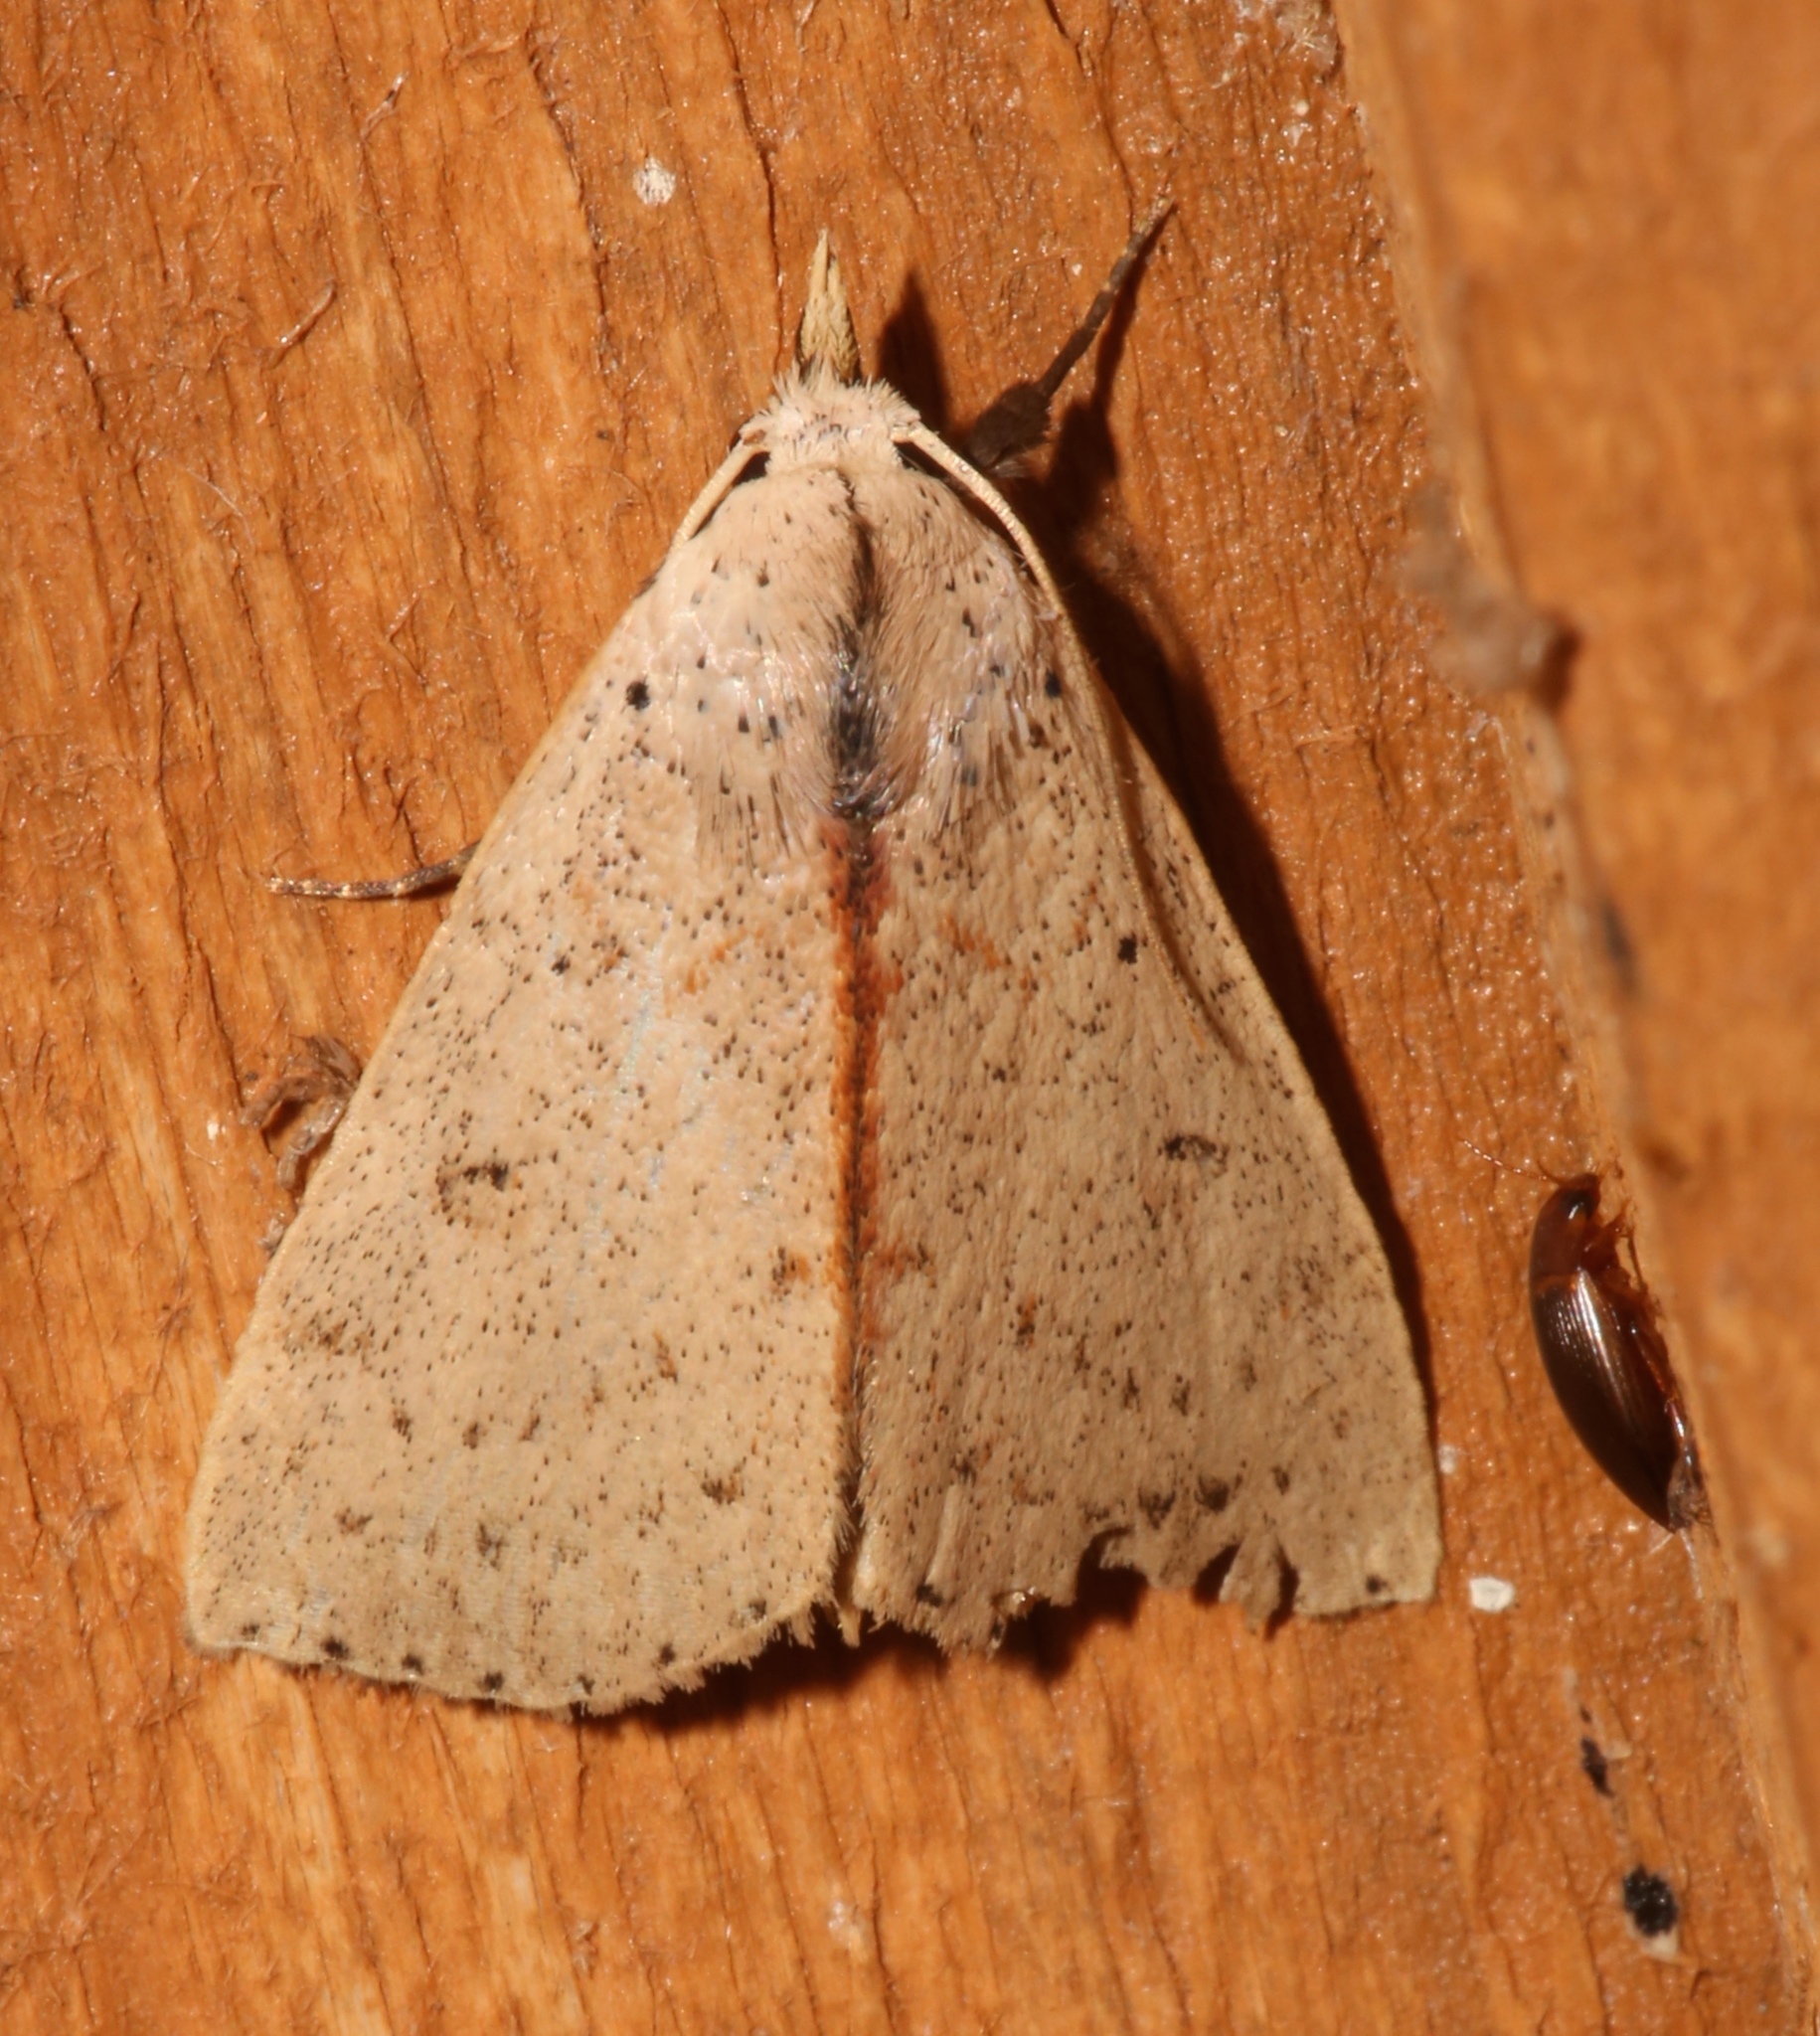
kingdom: Animalia
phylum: Arthropoda
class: Insecta
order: Lepidoptera
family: Erebidae
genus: Scolecocampa
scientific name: Scolecocampa liburna
